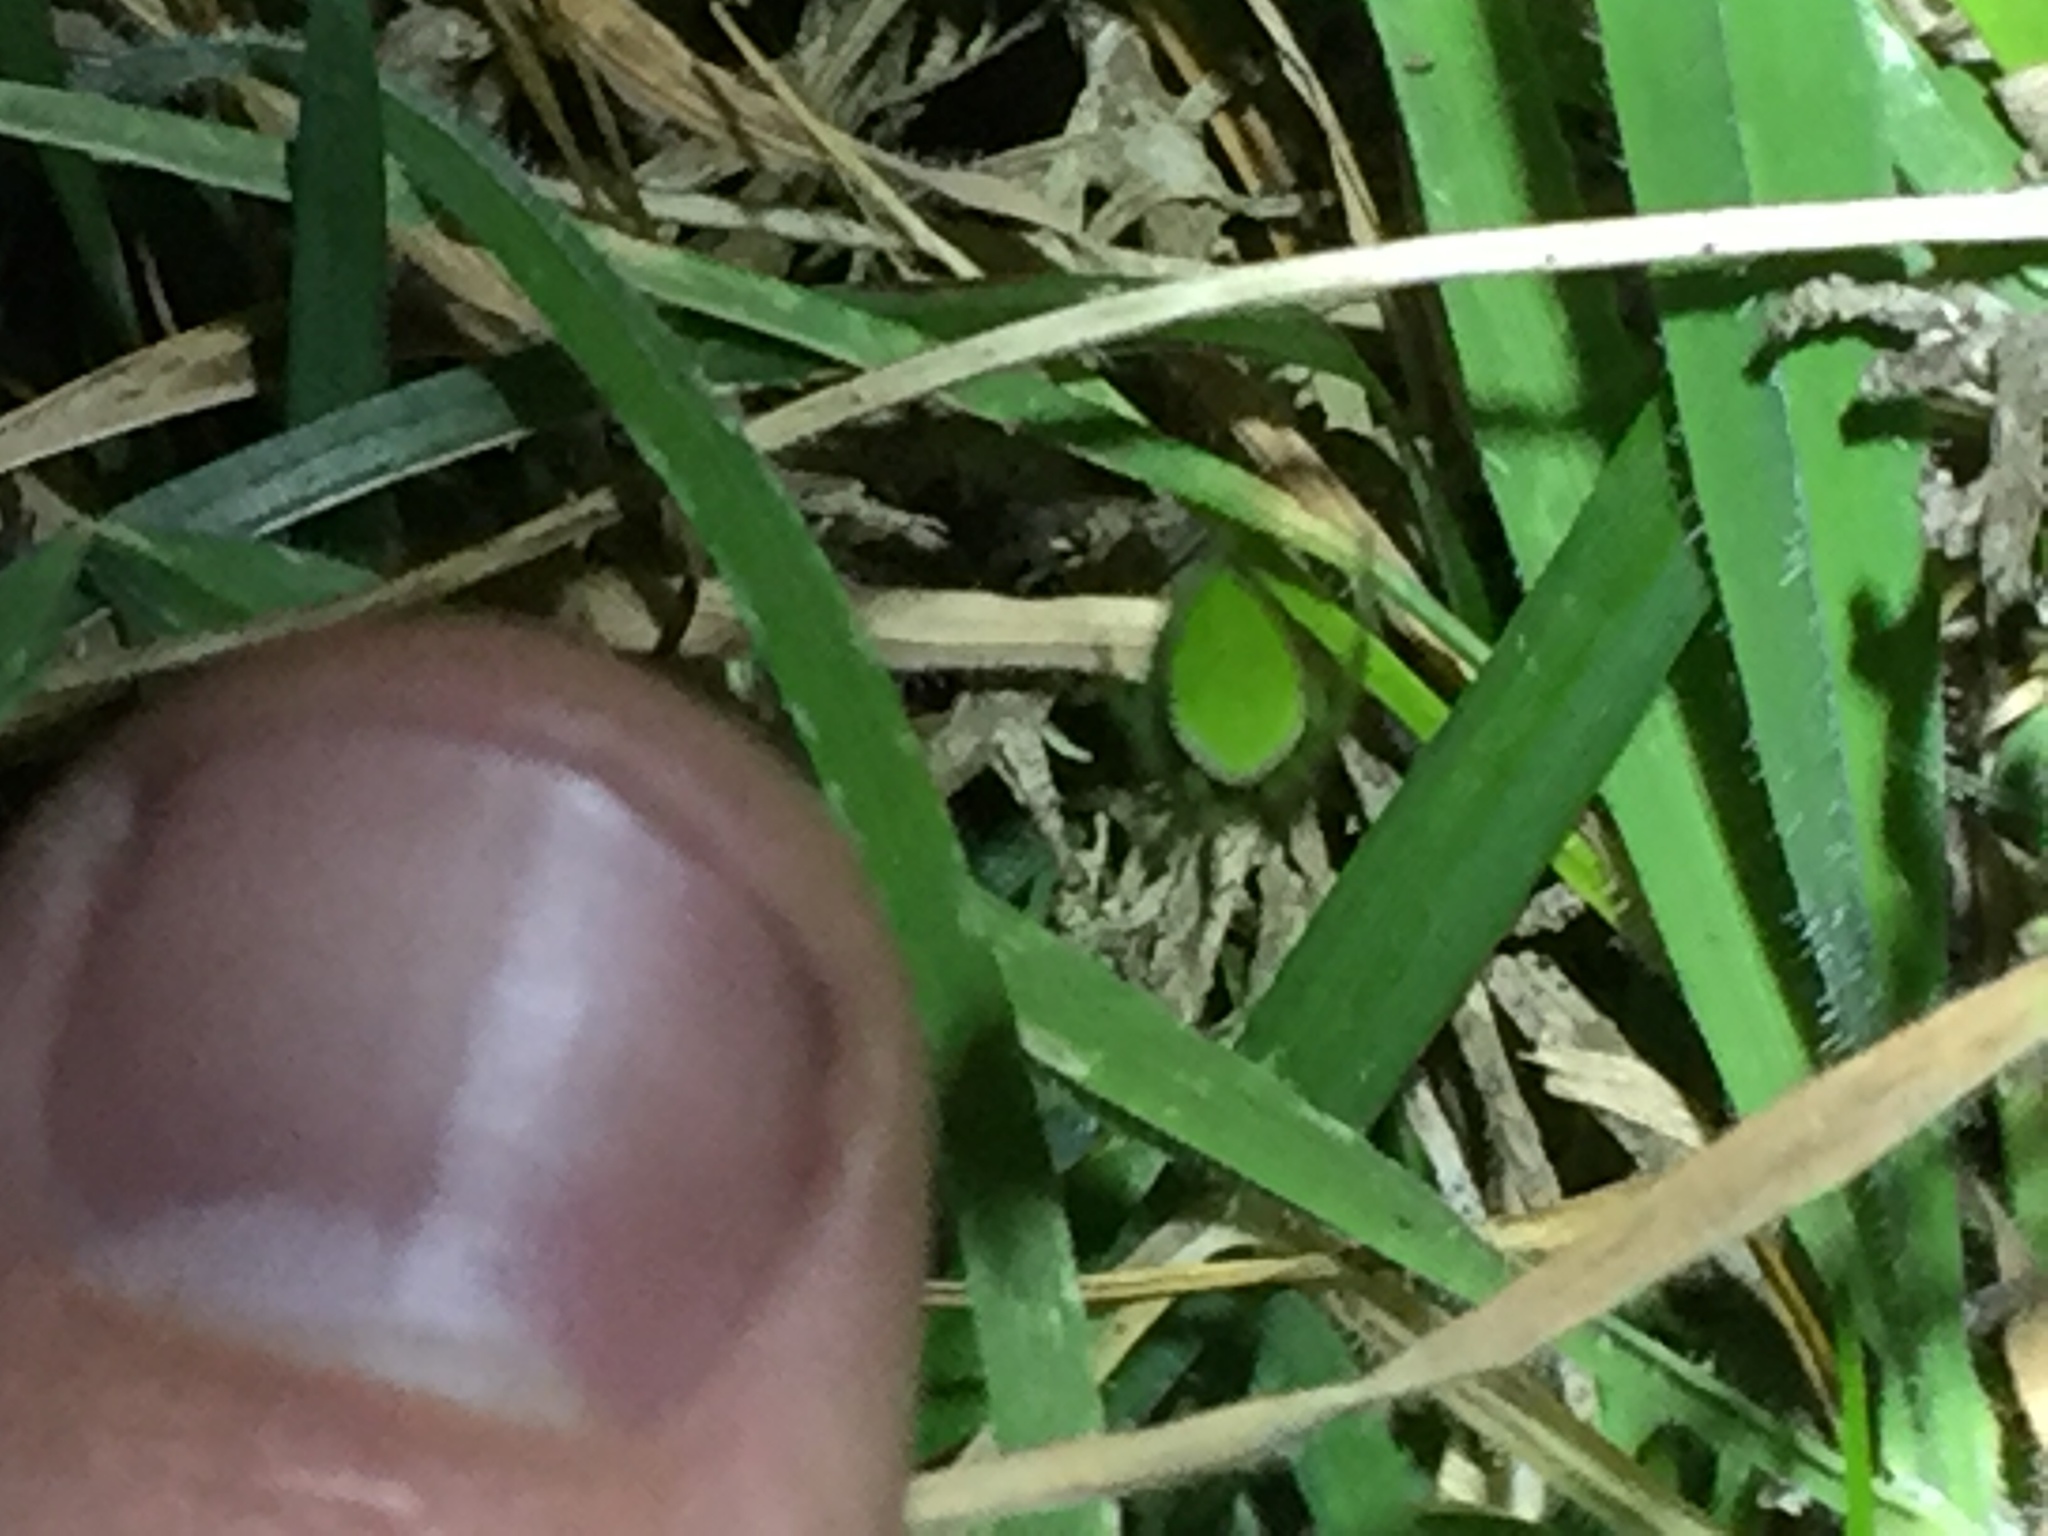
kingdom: Animalia
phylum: Arthropoda
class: Arachnida
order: Araneae
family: Araneidae
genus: Colaranea
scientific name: Colaranea viriditas
